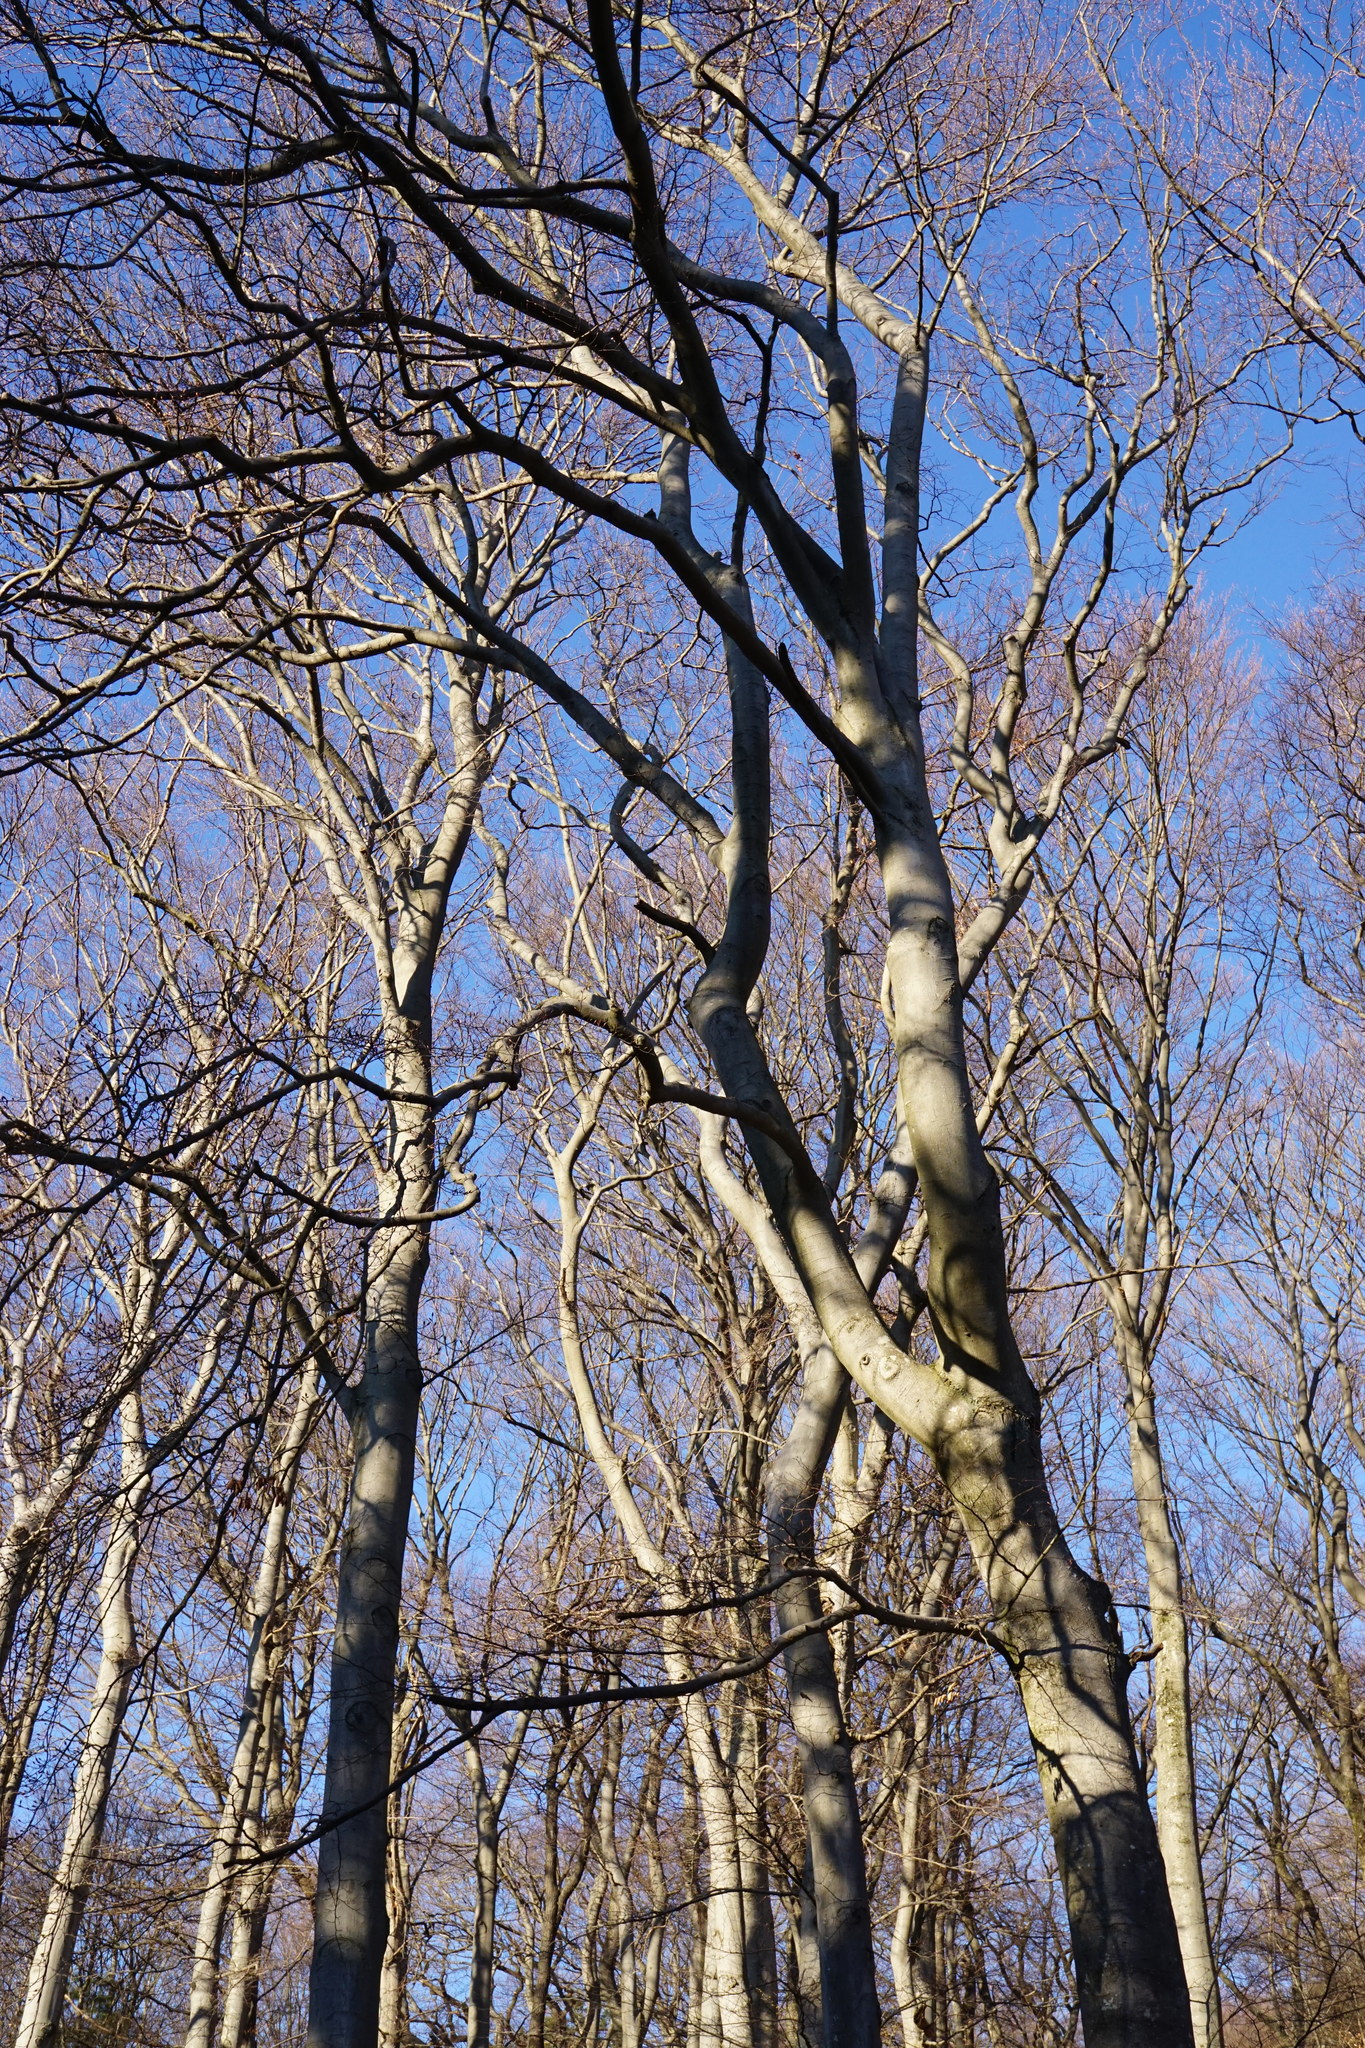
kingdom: Plantae
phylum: Tracheophyta
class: Magnoliopsida
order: Fagales
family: Fagaceae
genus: Fagus
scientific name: Fagus sylvatica
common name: Beech
